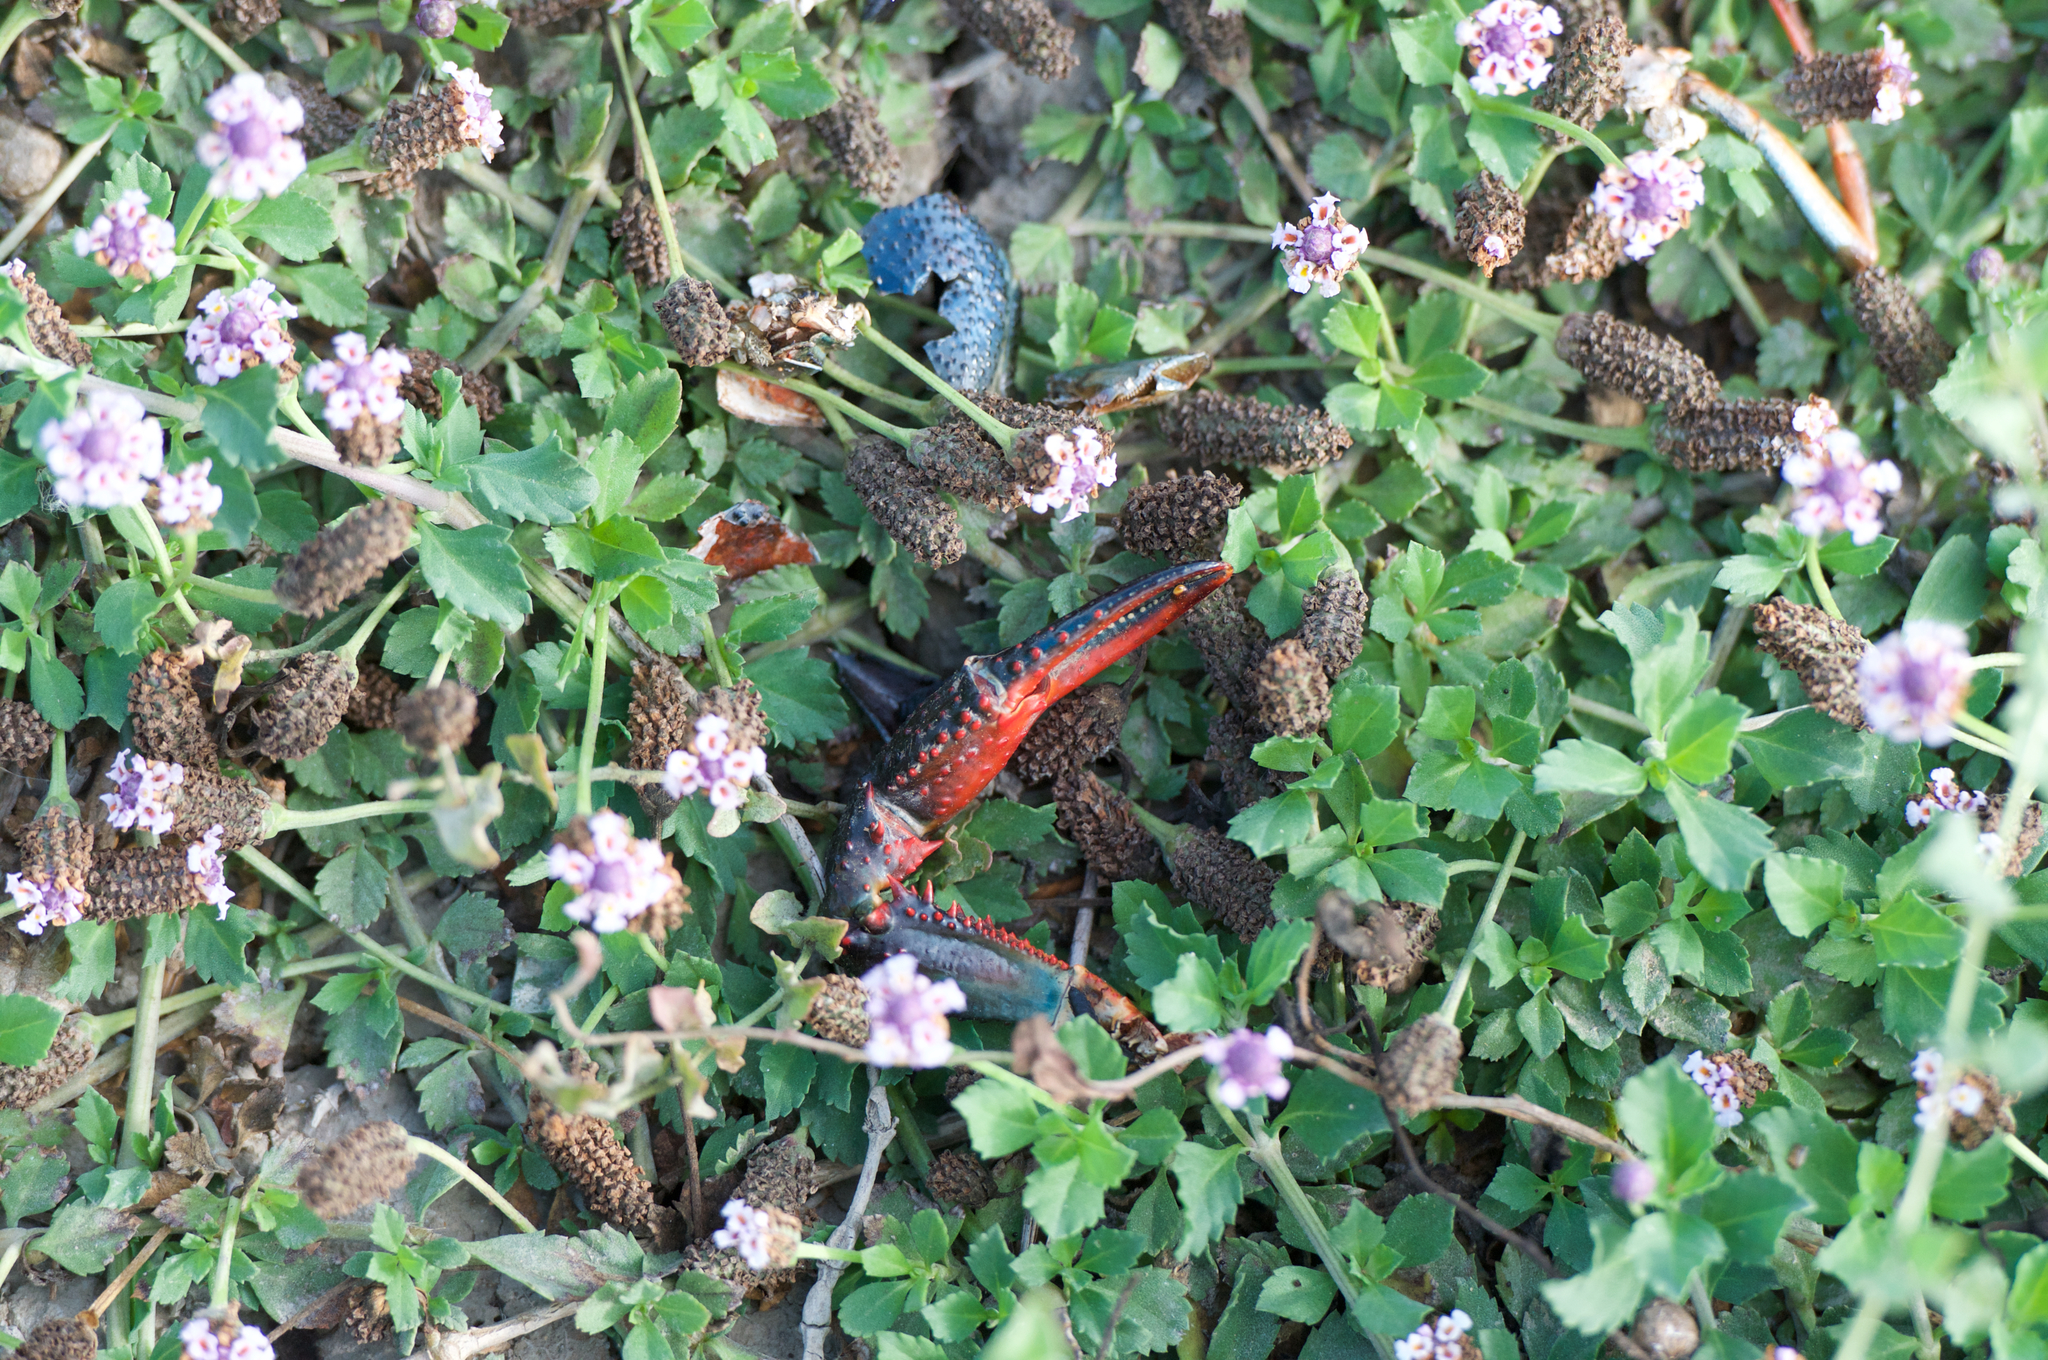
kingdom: Animalia
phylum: Arthropoda
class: Malacostraca
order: Decapoda
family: Cambaridae
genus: Procambarus
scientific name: Procambarus clarkii
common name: Red swamp crayfish
